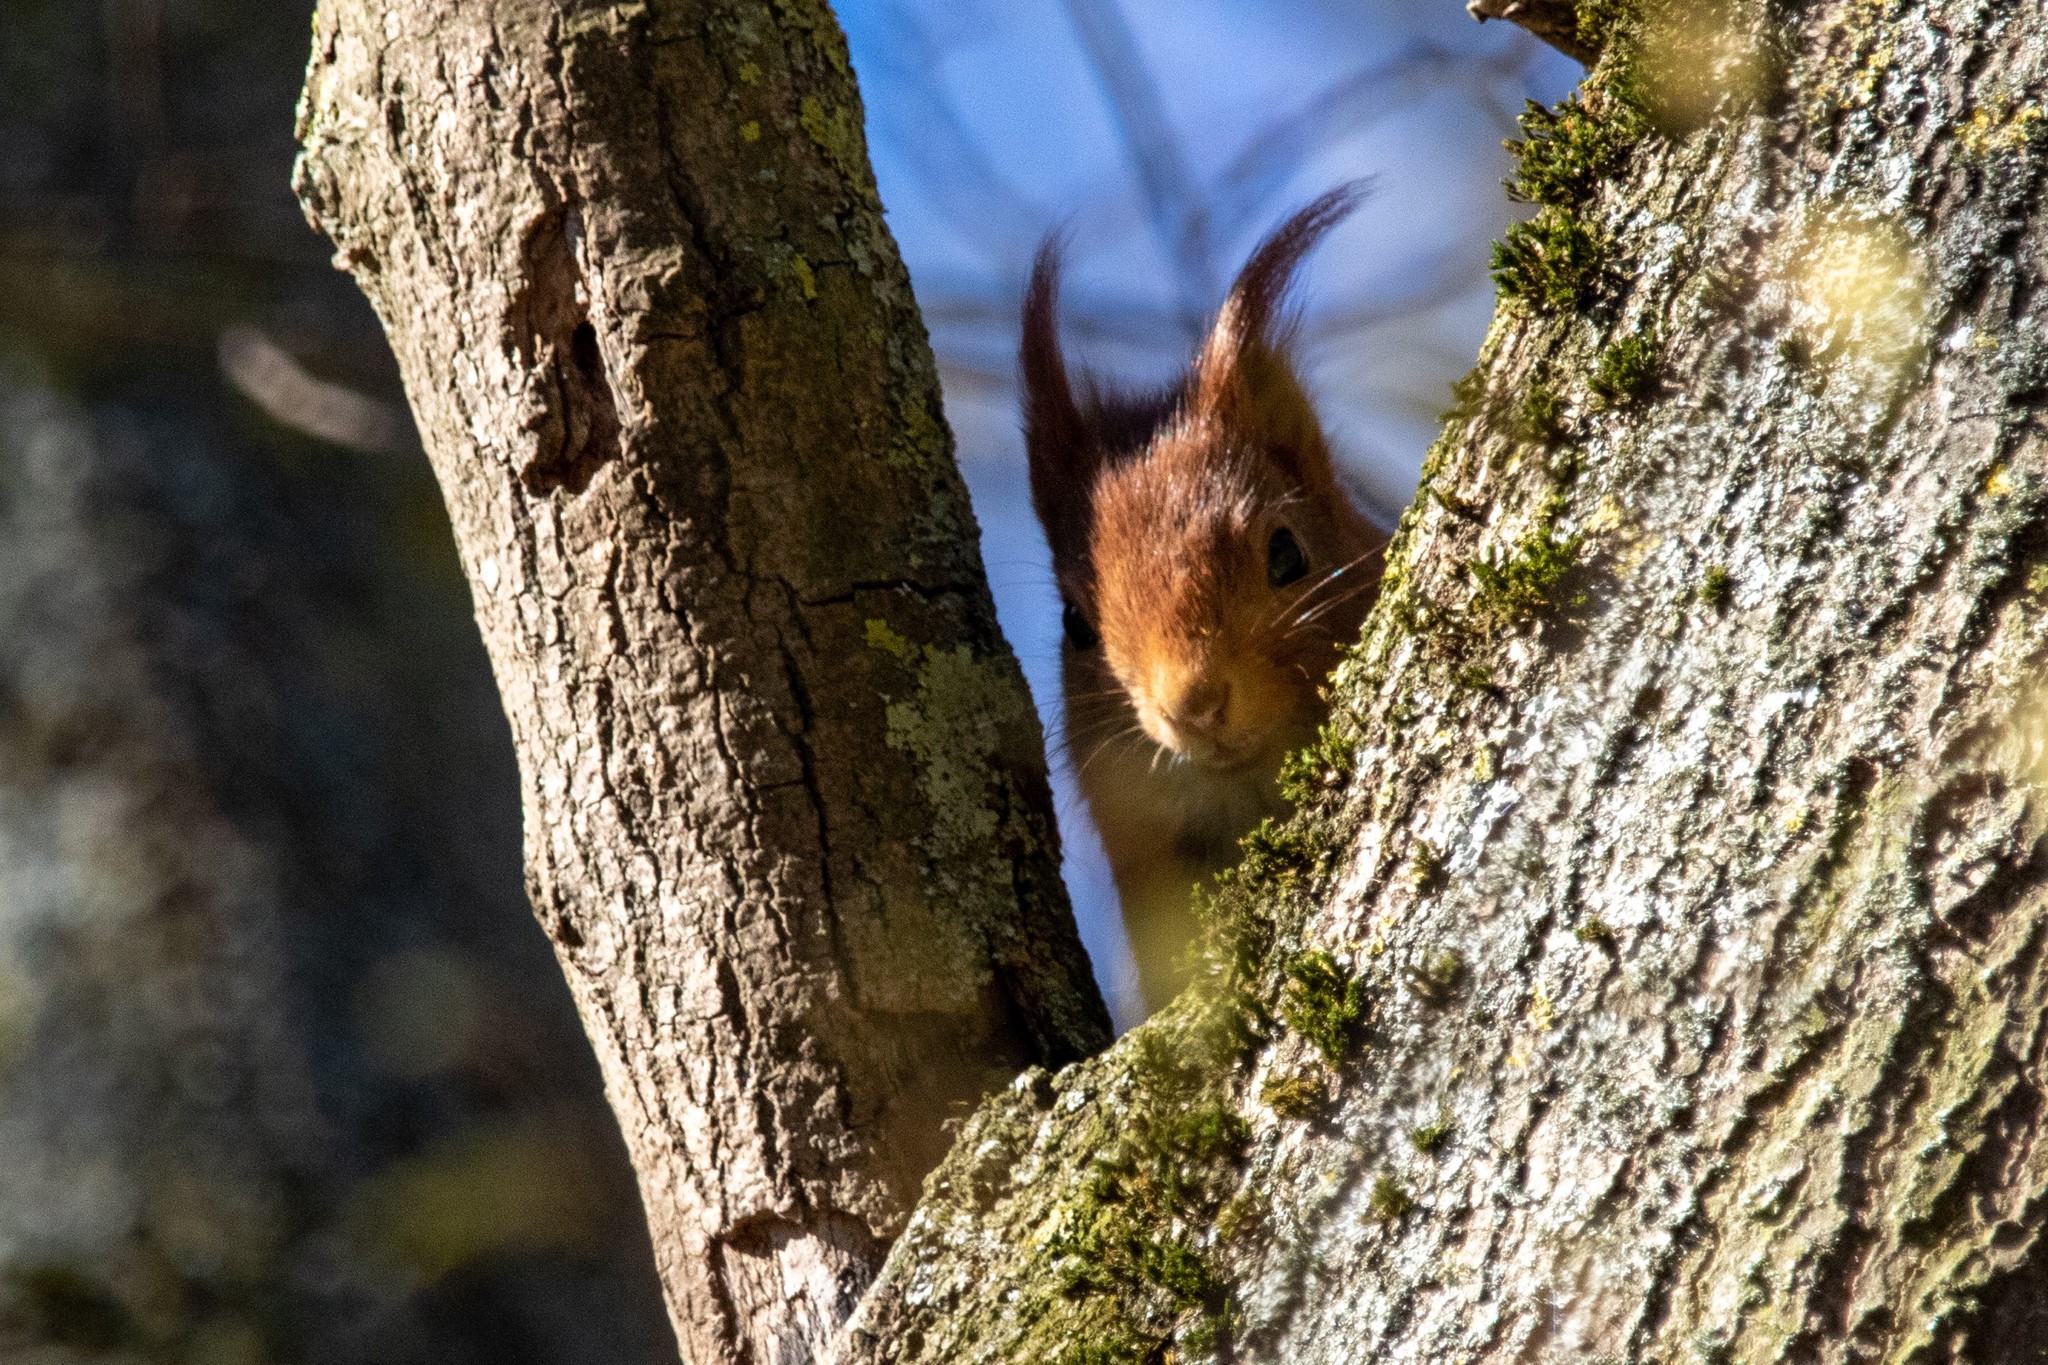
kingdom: Animalia
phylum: Chordata
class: Mammalia
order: Rodentia
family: Sciuridae
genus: Sciurus
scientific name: Sciurus vulgaris
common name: Eurasian red squirrel
